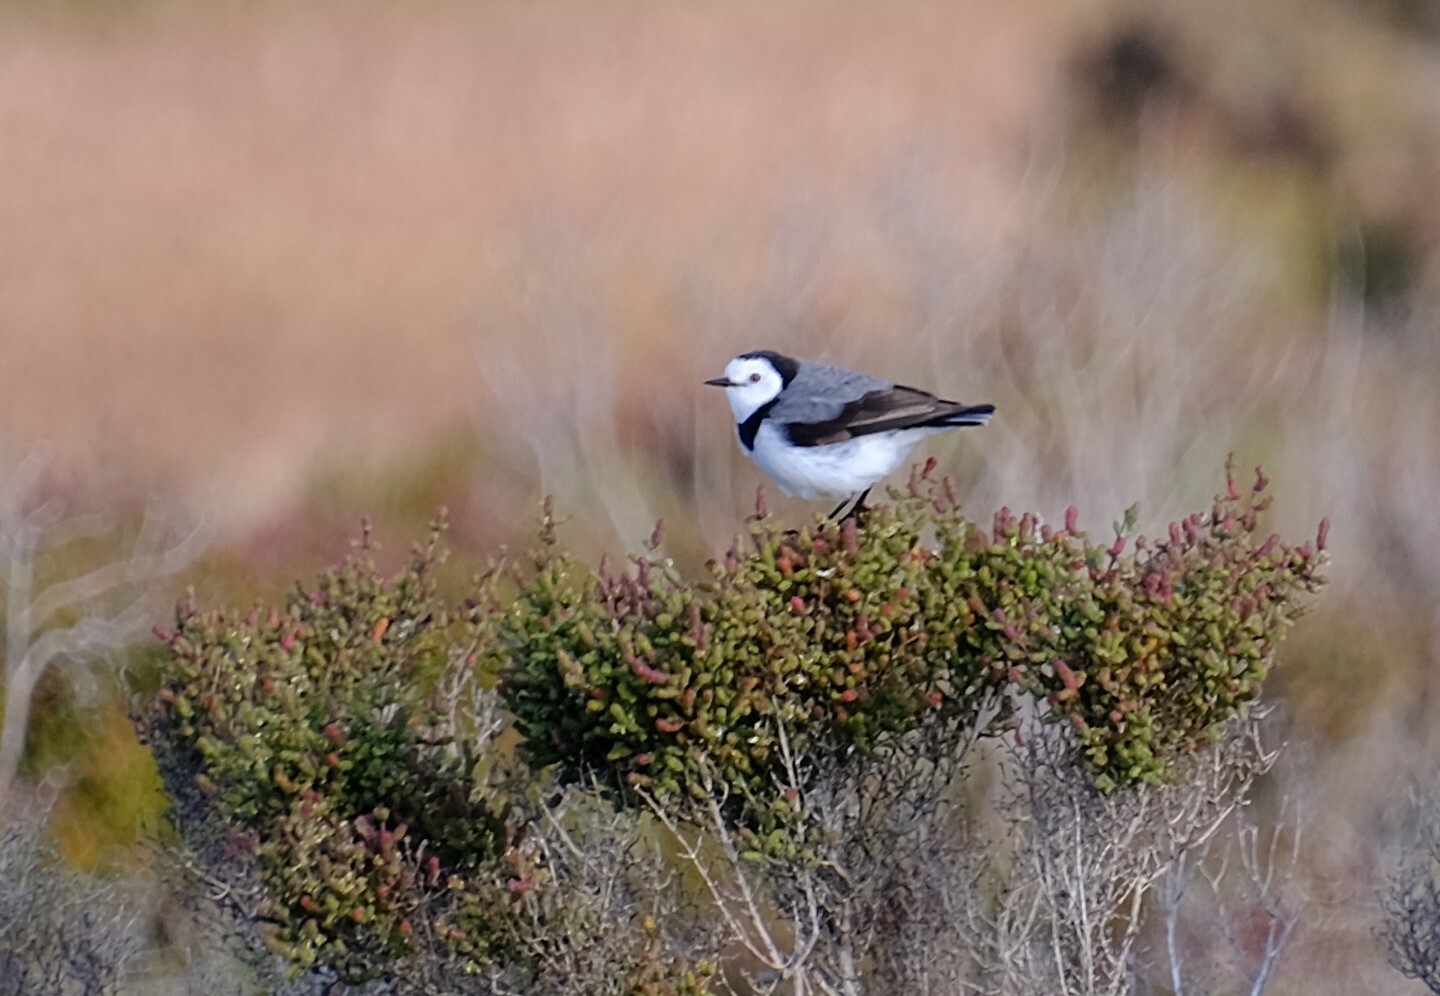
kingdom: Animalia
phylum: Chordata
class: Aves
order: Passeriformes
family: Meliphagidae
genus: Epthianura
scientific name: Epthianura albifrons
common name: White-fronted chat
